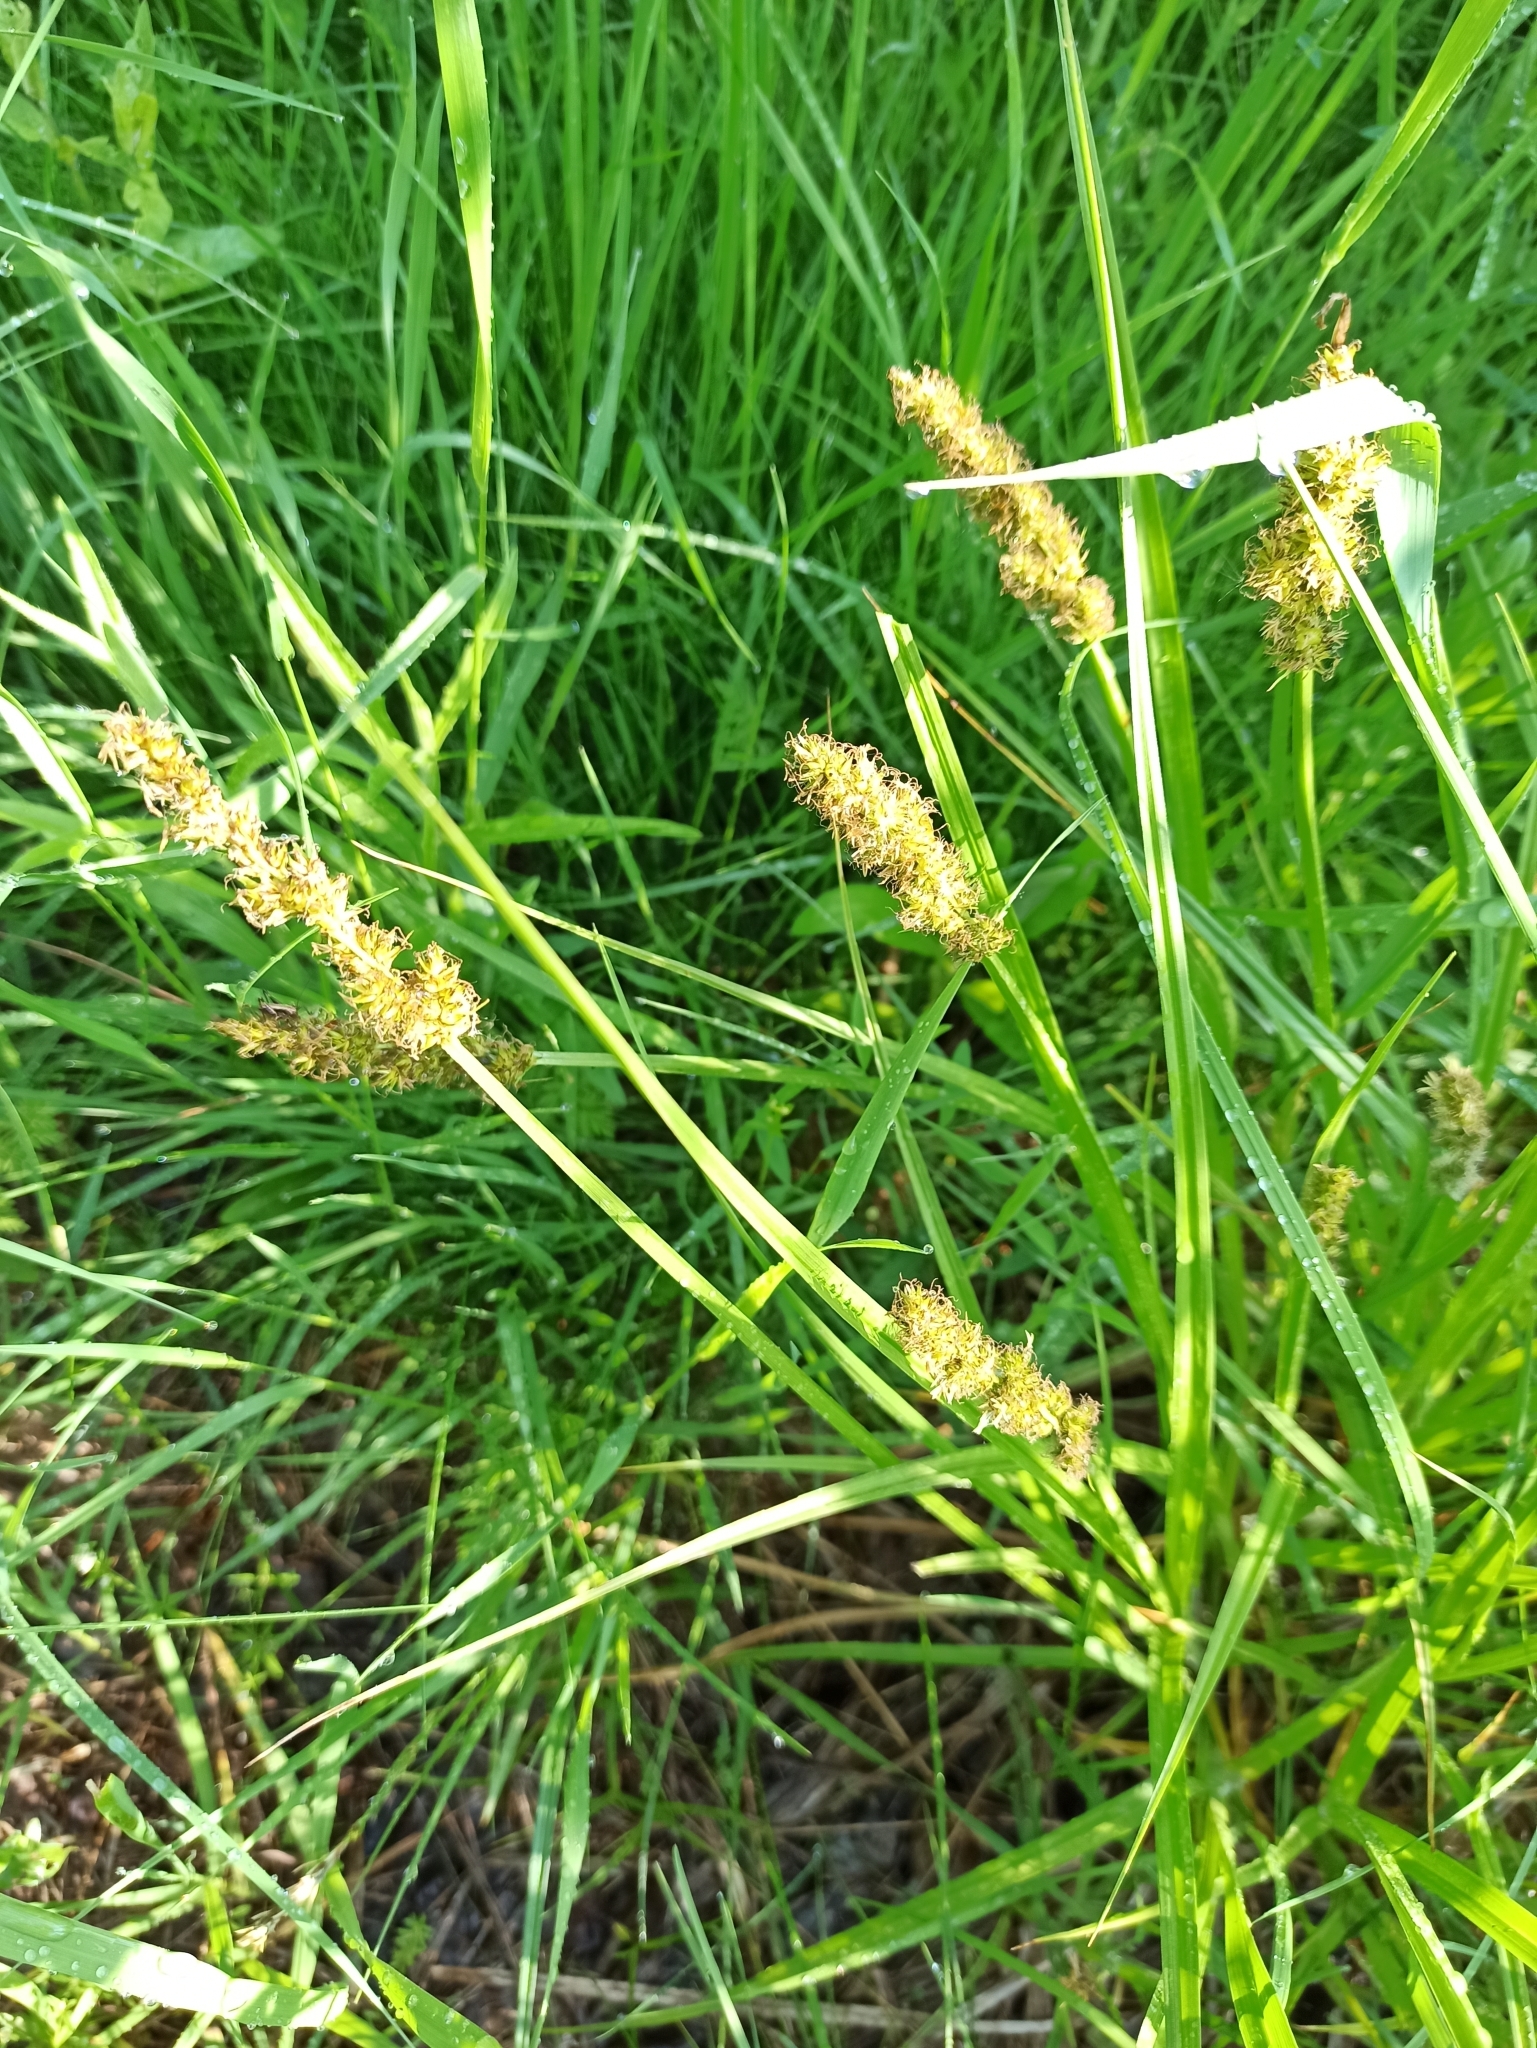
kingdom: Plantae
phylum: Tracheophyta
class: Liliopsida
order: Poales
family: Cyperaceae
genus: Carex
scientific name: Carex vulpina
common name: True fox-sedge
